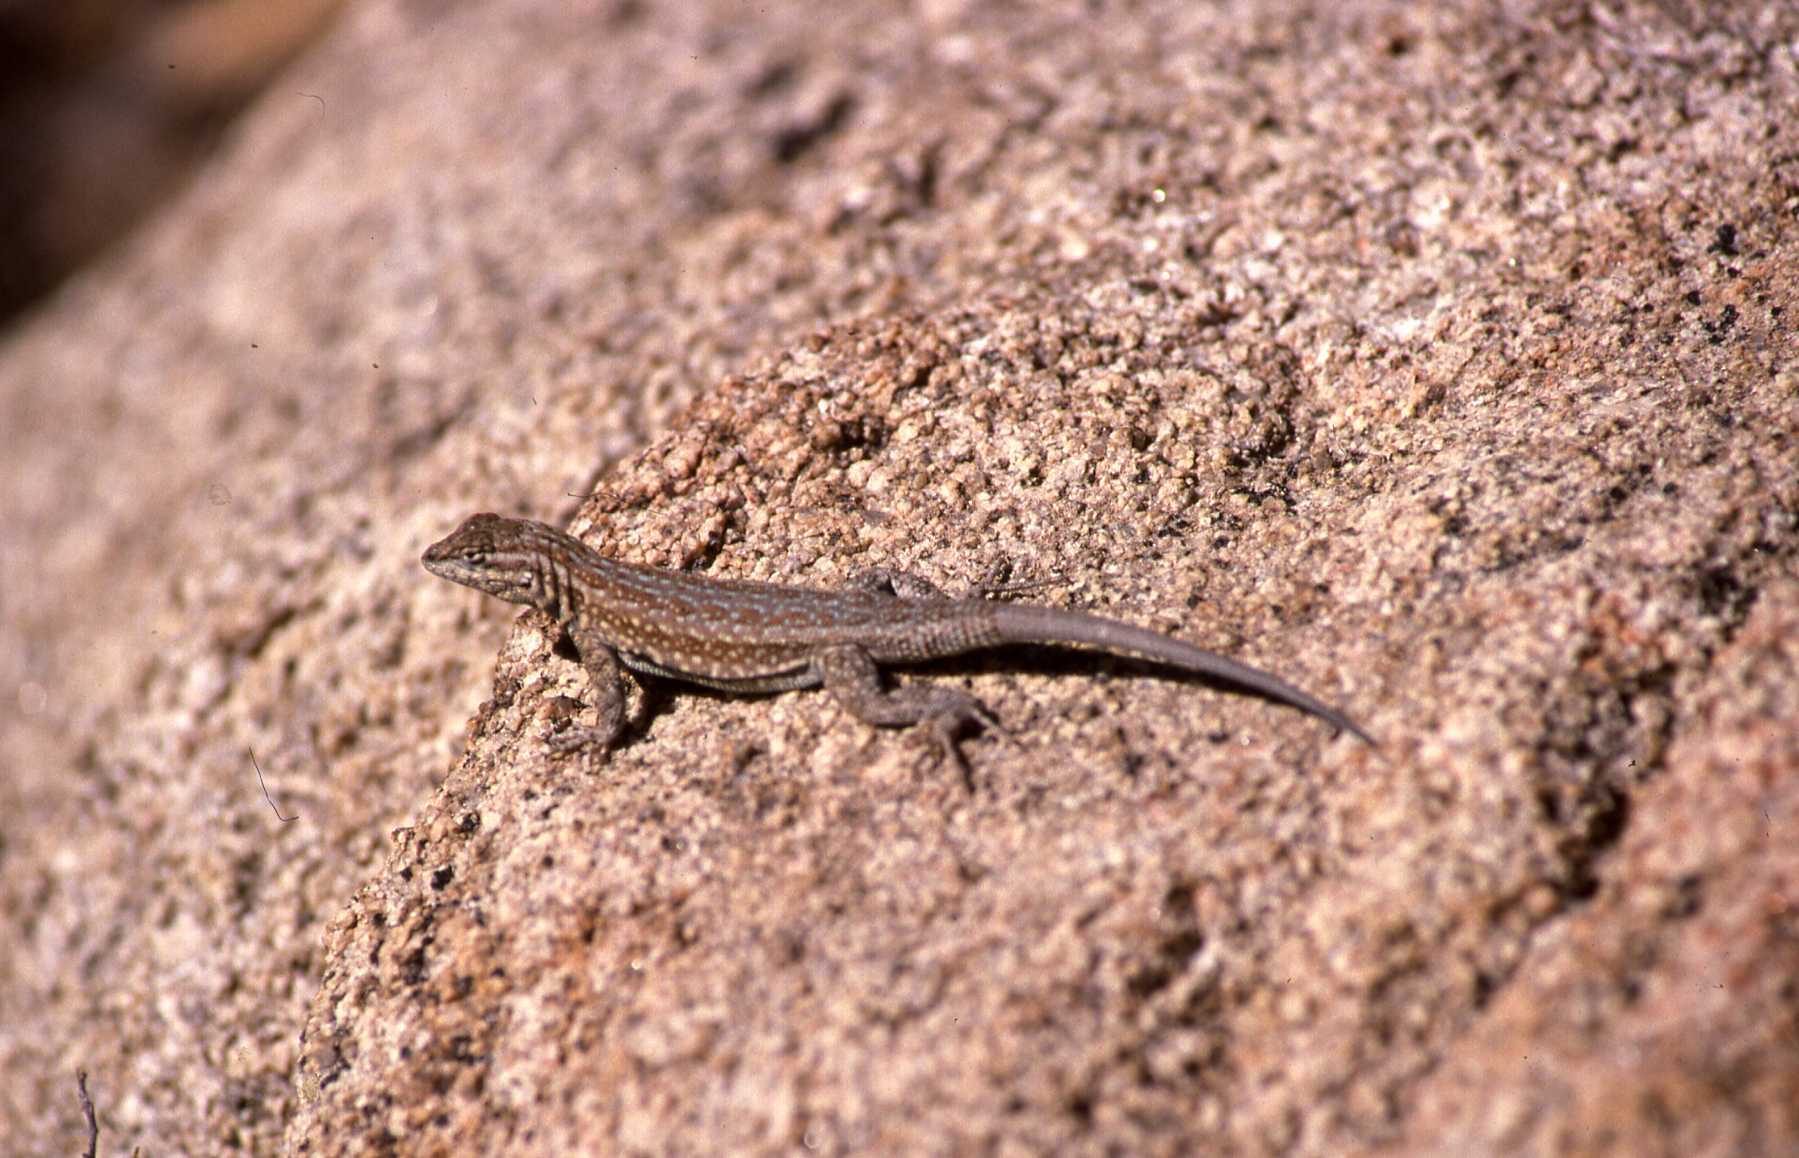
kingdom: Animalia
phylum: Chordata
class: Squamata
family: Phrynosomatidae
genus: Uta
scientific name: Uta stansburiana
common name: Side-blotched lizard
